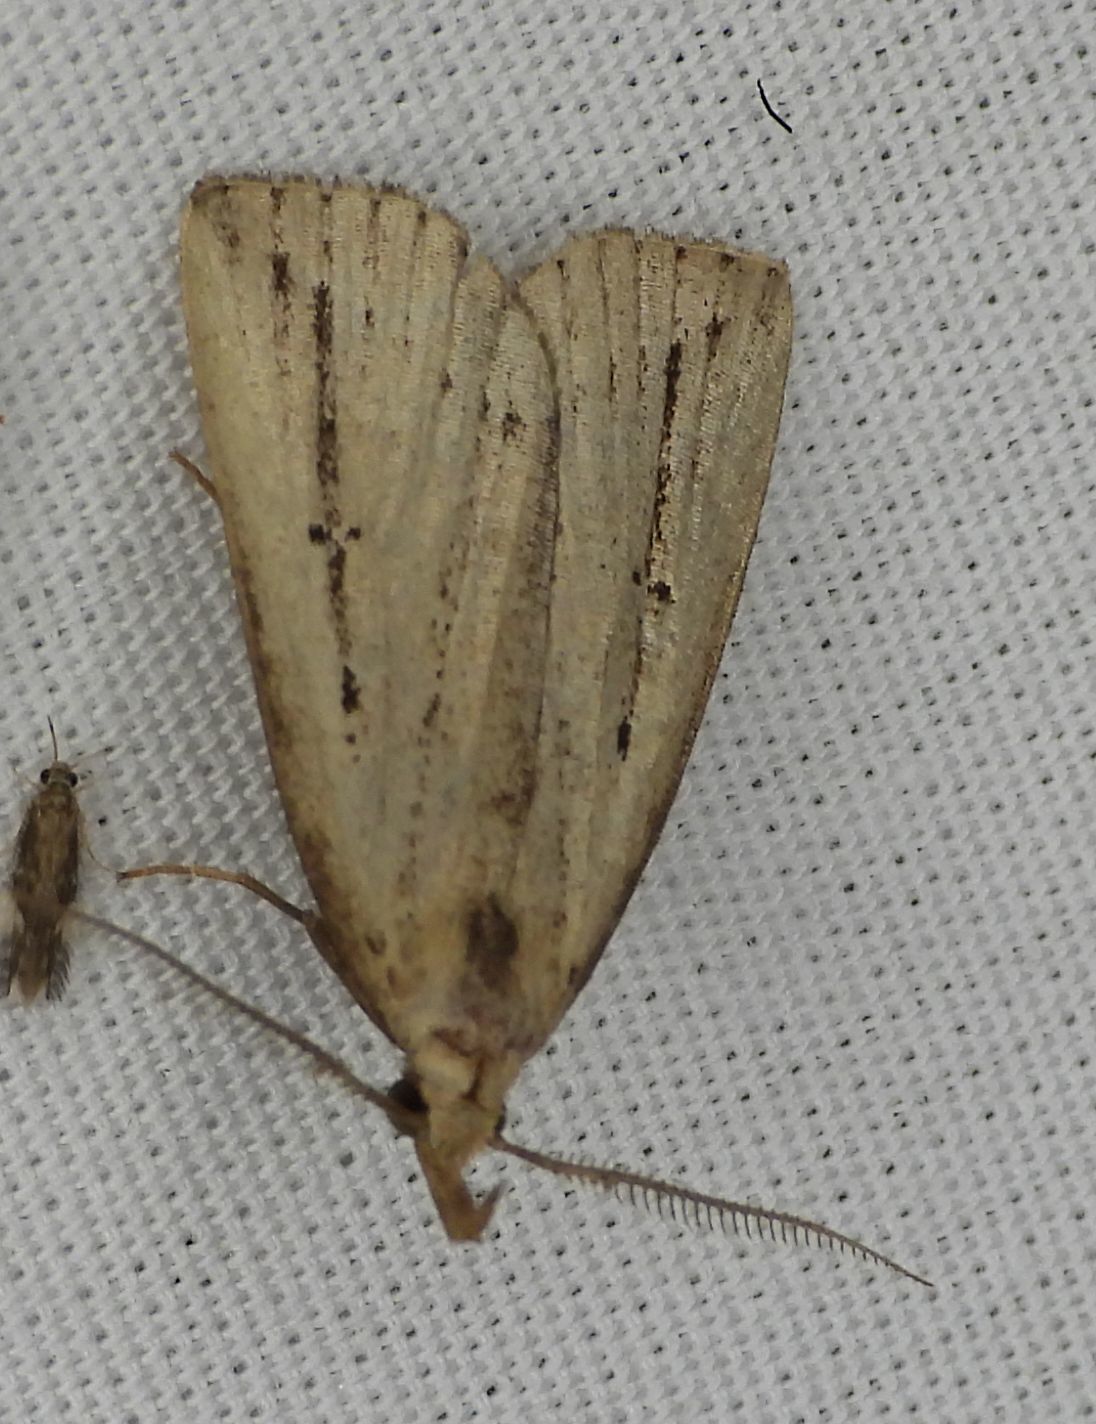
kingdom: Animalia
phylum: Arthropoda
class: Insecta
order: Lepidoptera
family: Erebidae
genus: Macrochilo
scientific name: Macrochilo orciferalis
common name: Bronzy owlet
